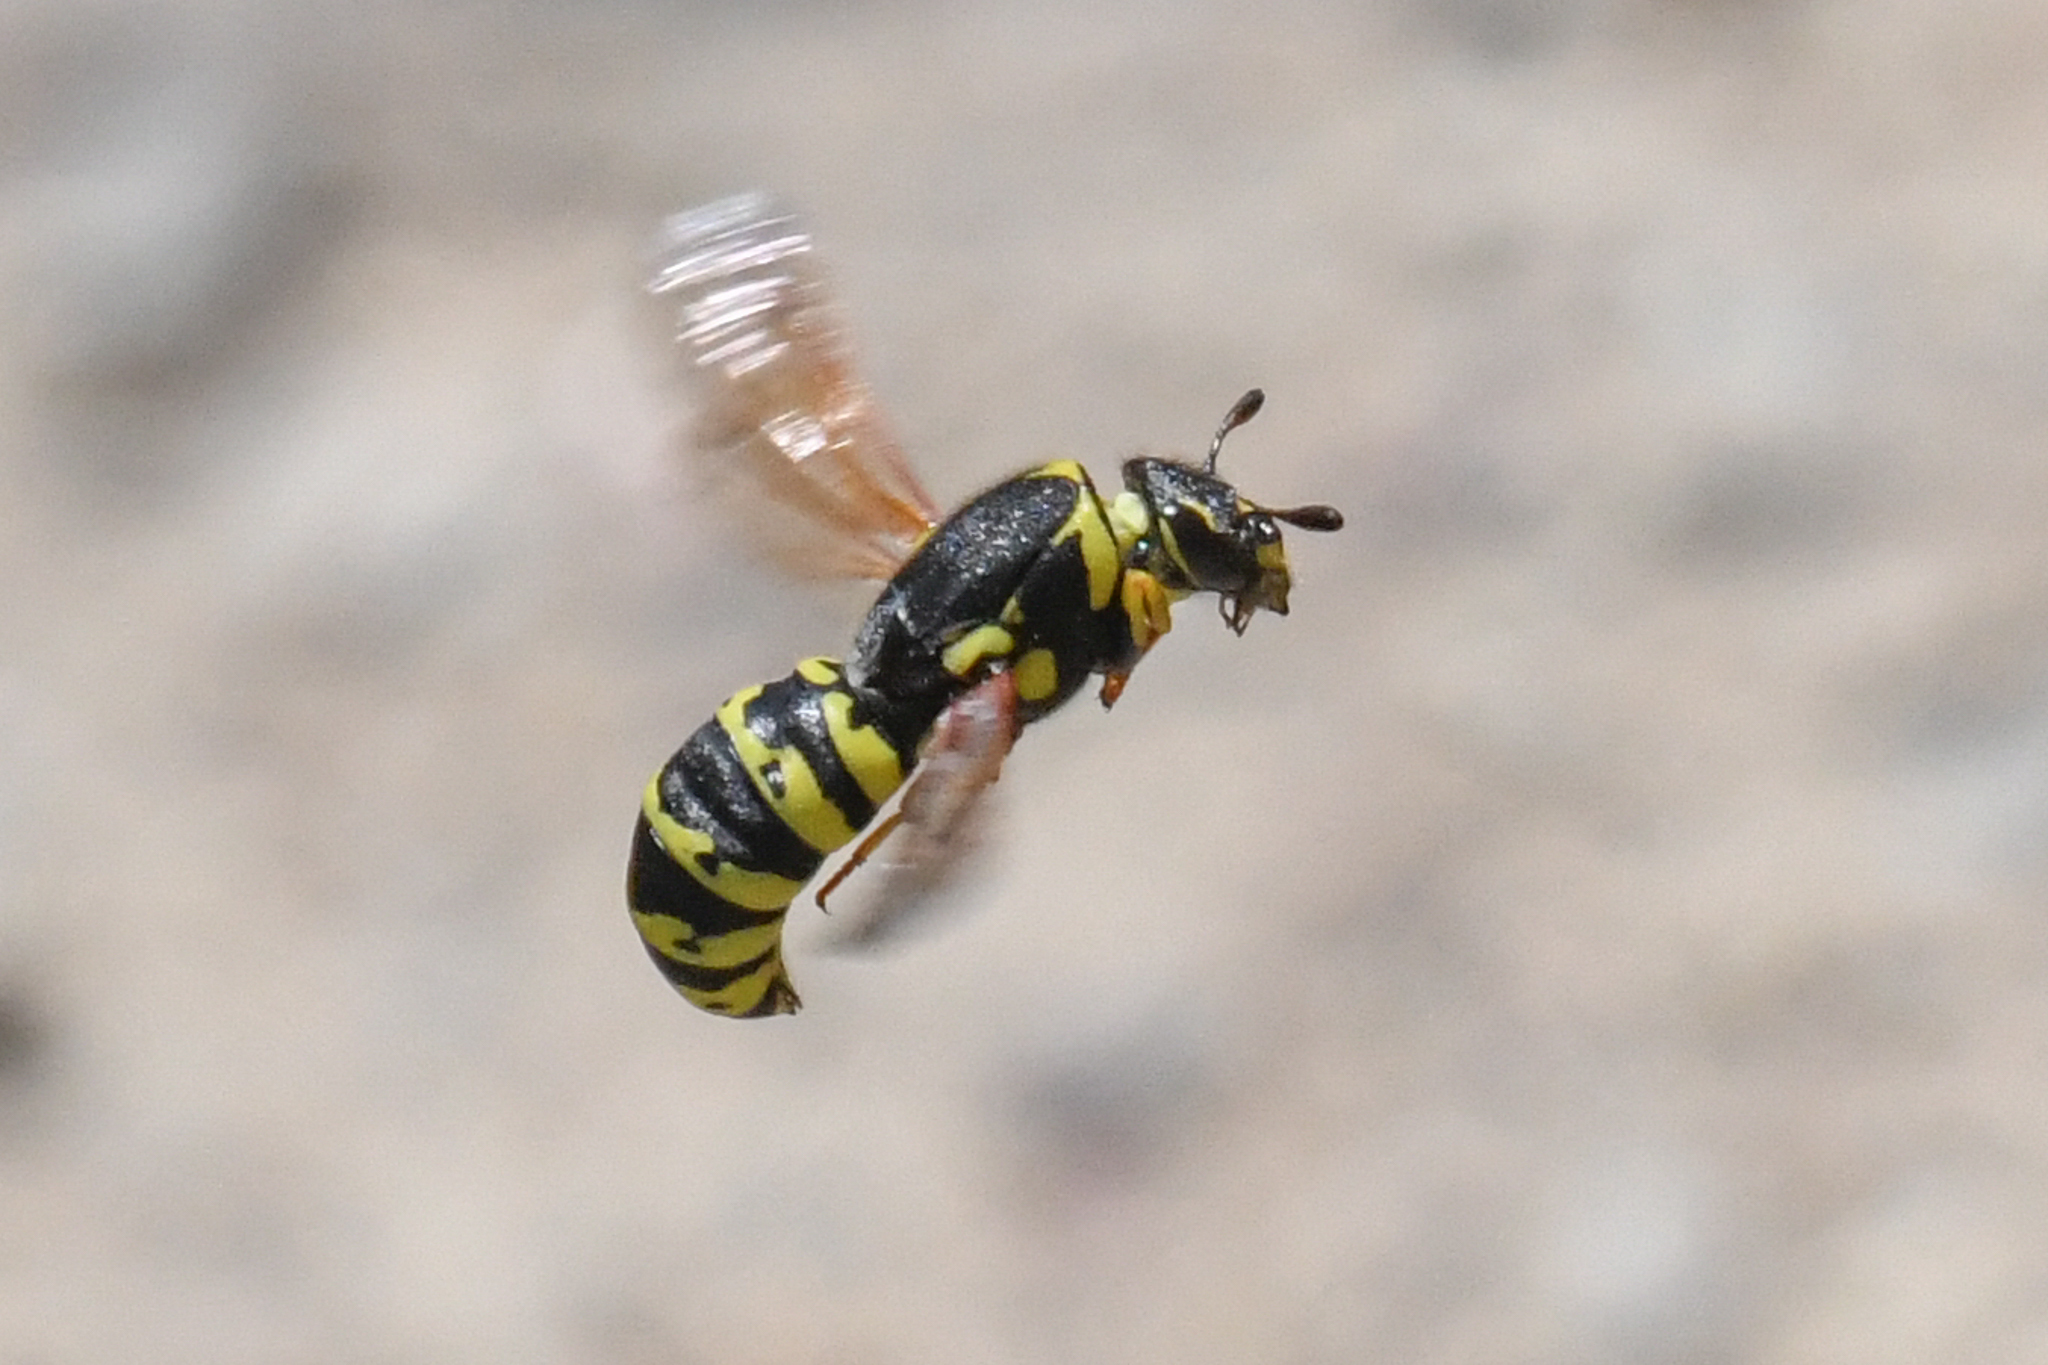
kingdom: Animalia
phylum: Arthropoda
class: Insecta
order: Hymenoptera
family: Masaridae
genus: Pseudomasaris
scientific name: Pseudomasaris vespoides
